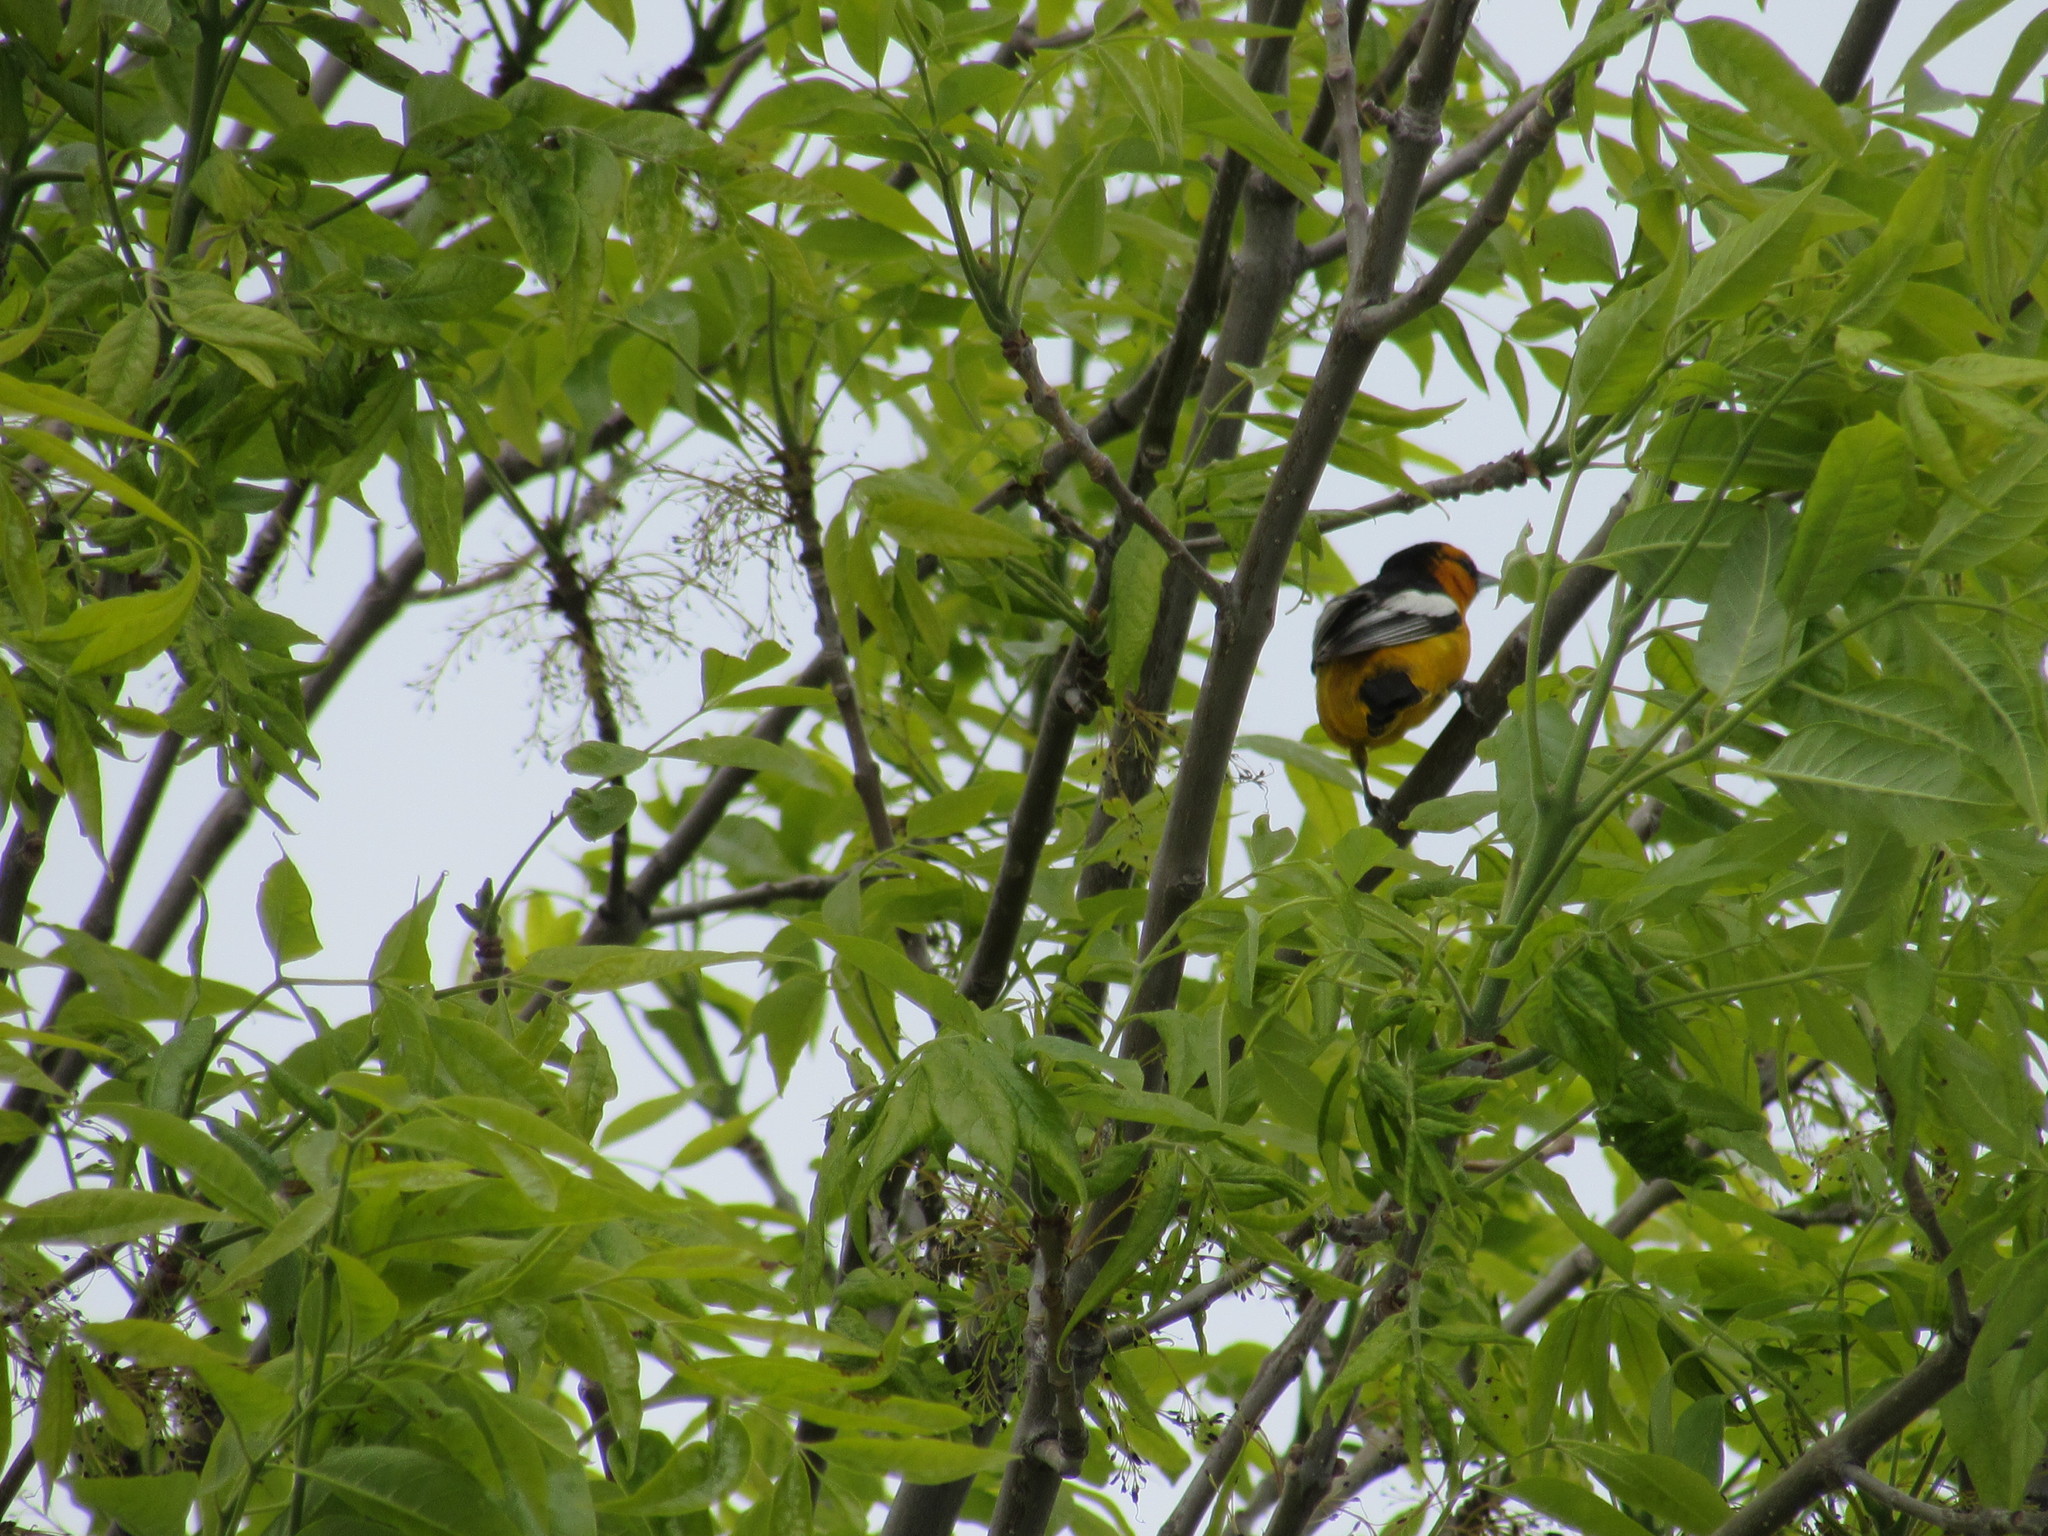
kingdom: Animalia
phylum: Chordata
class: Aves
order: Passeriformes
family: Icteridae
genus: Icterus
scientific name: Icterus bullockii
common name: Bullock's oriole
